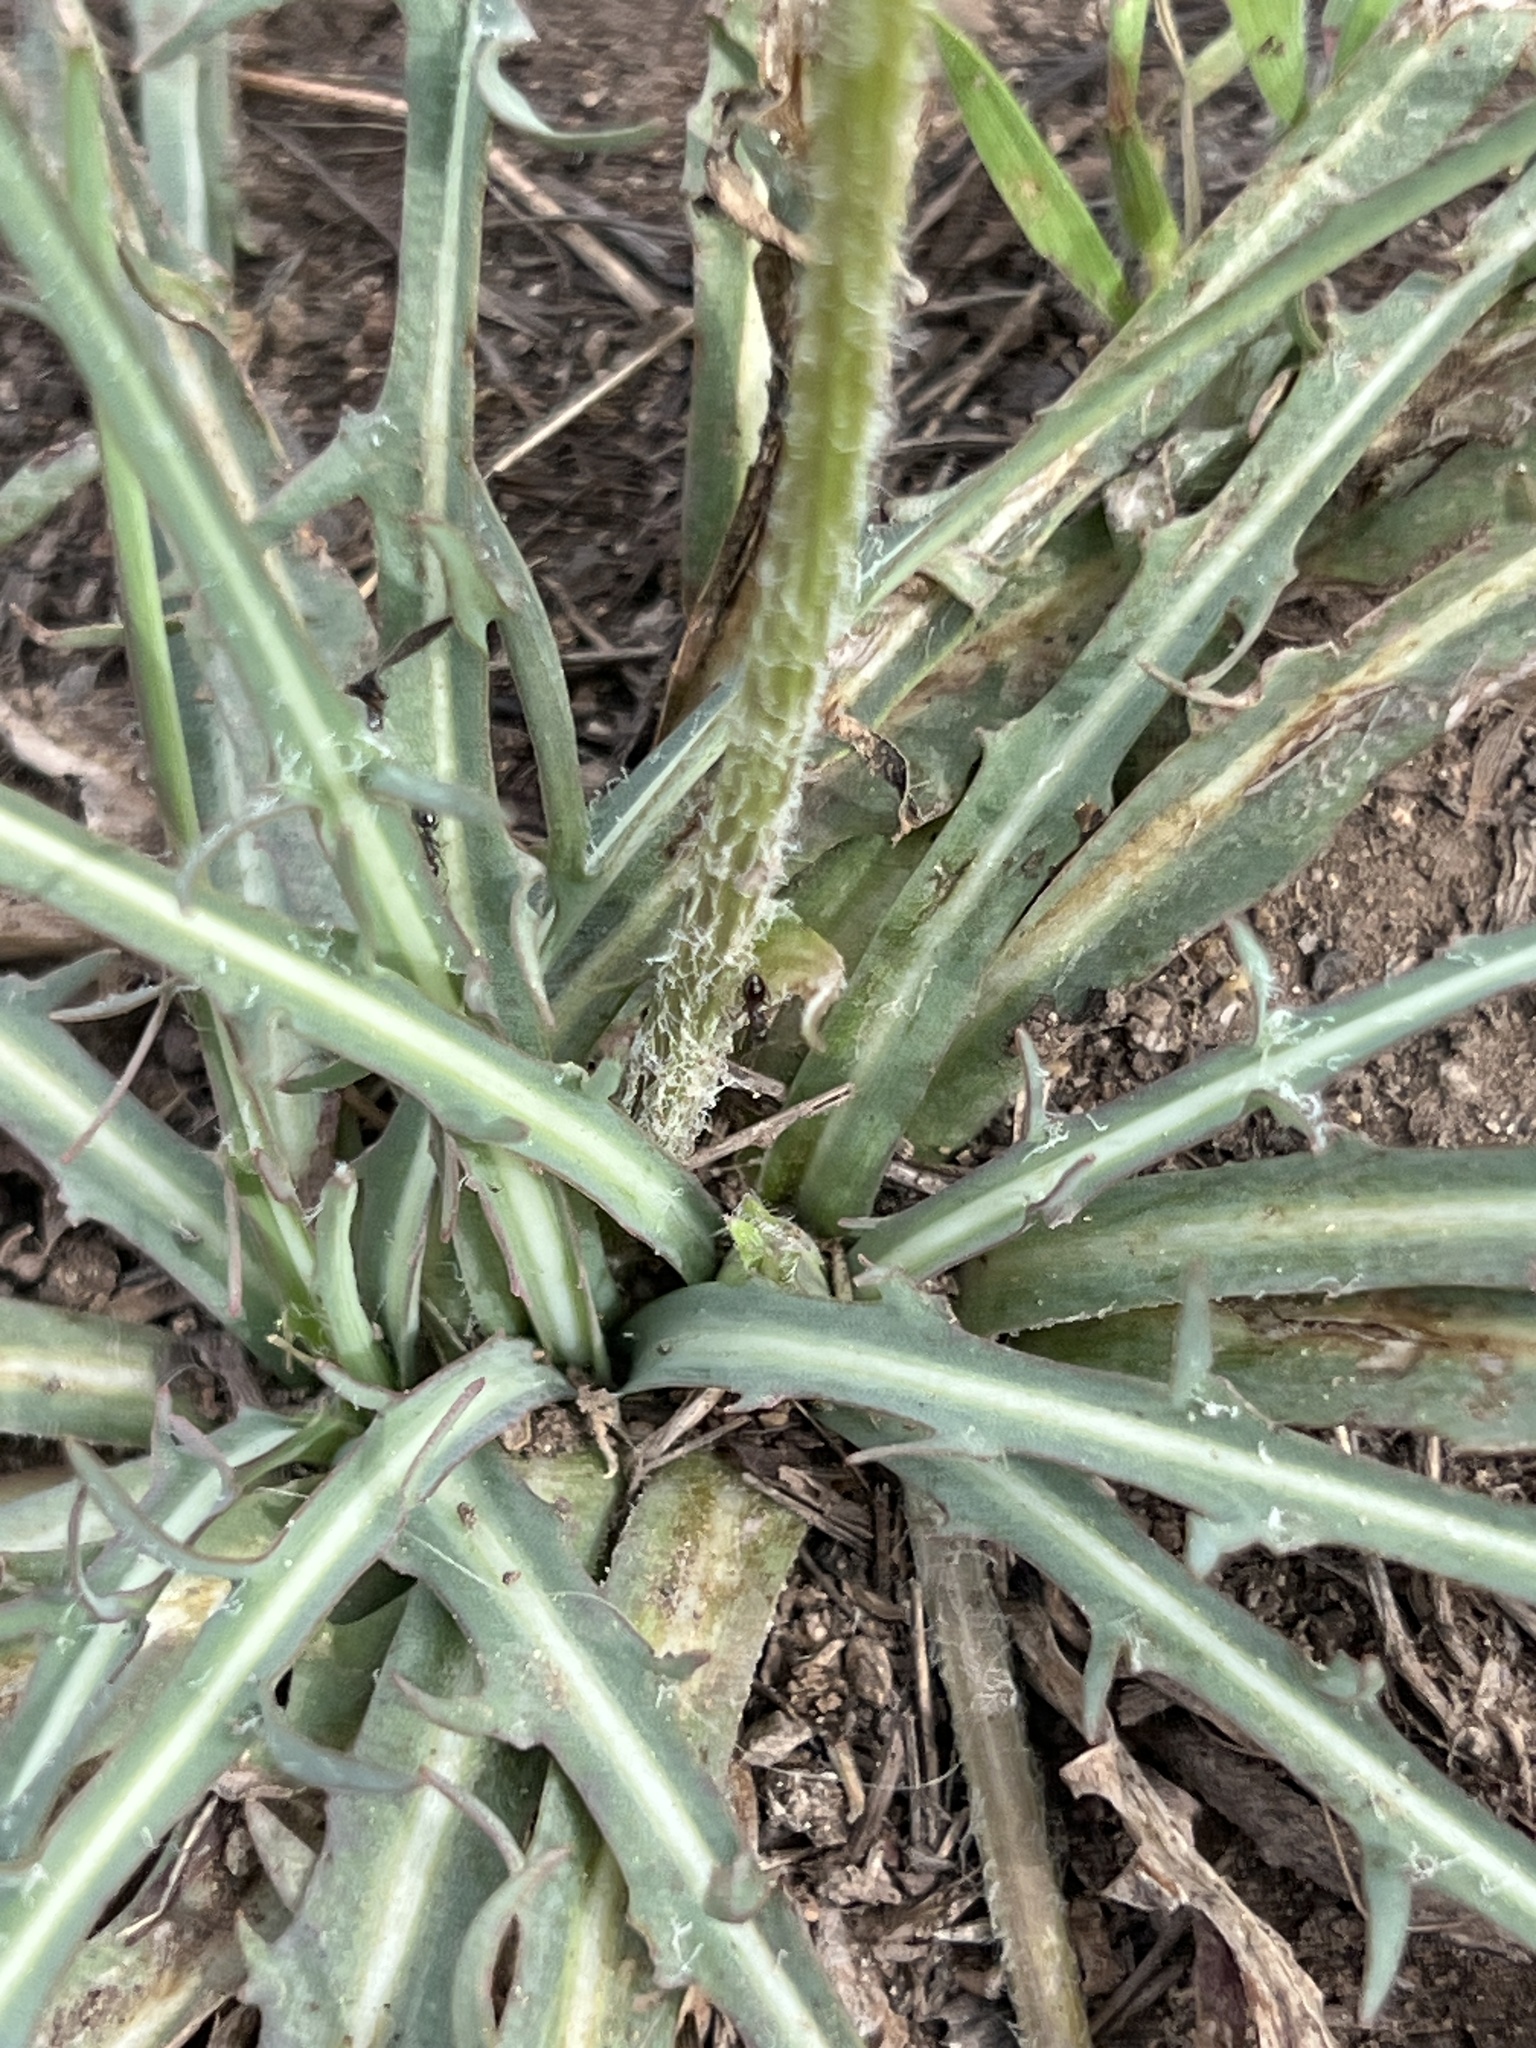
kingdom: Plantae
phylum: Tracheophyta
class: Magnoliopsida
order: Asterales
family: Asteraceae
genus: Agoseris
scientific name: Agoseris retrorsa
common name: Spearleaf agoseris
